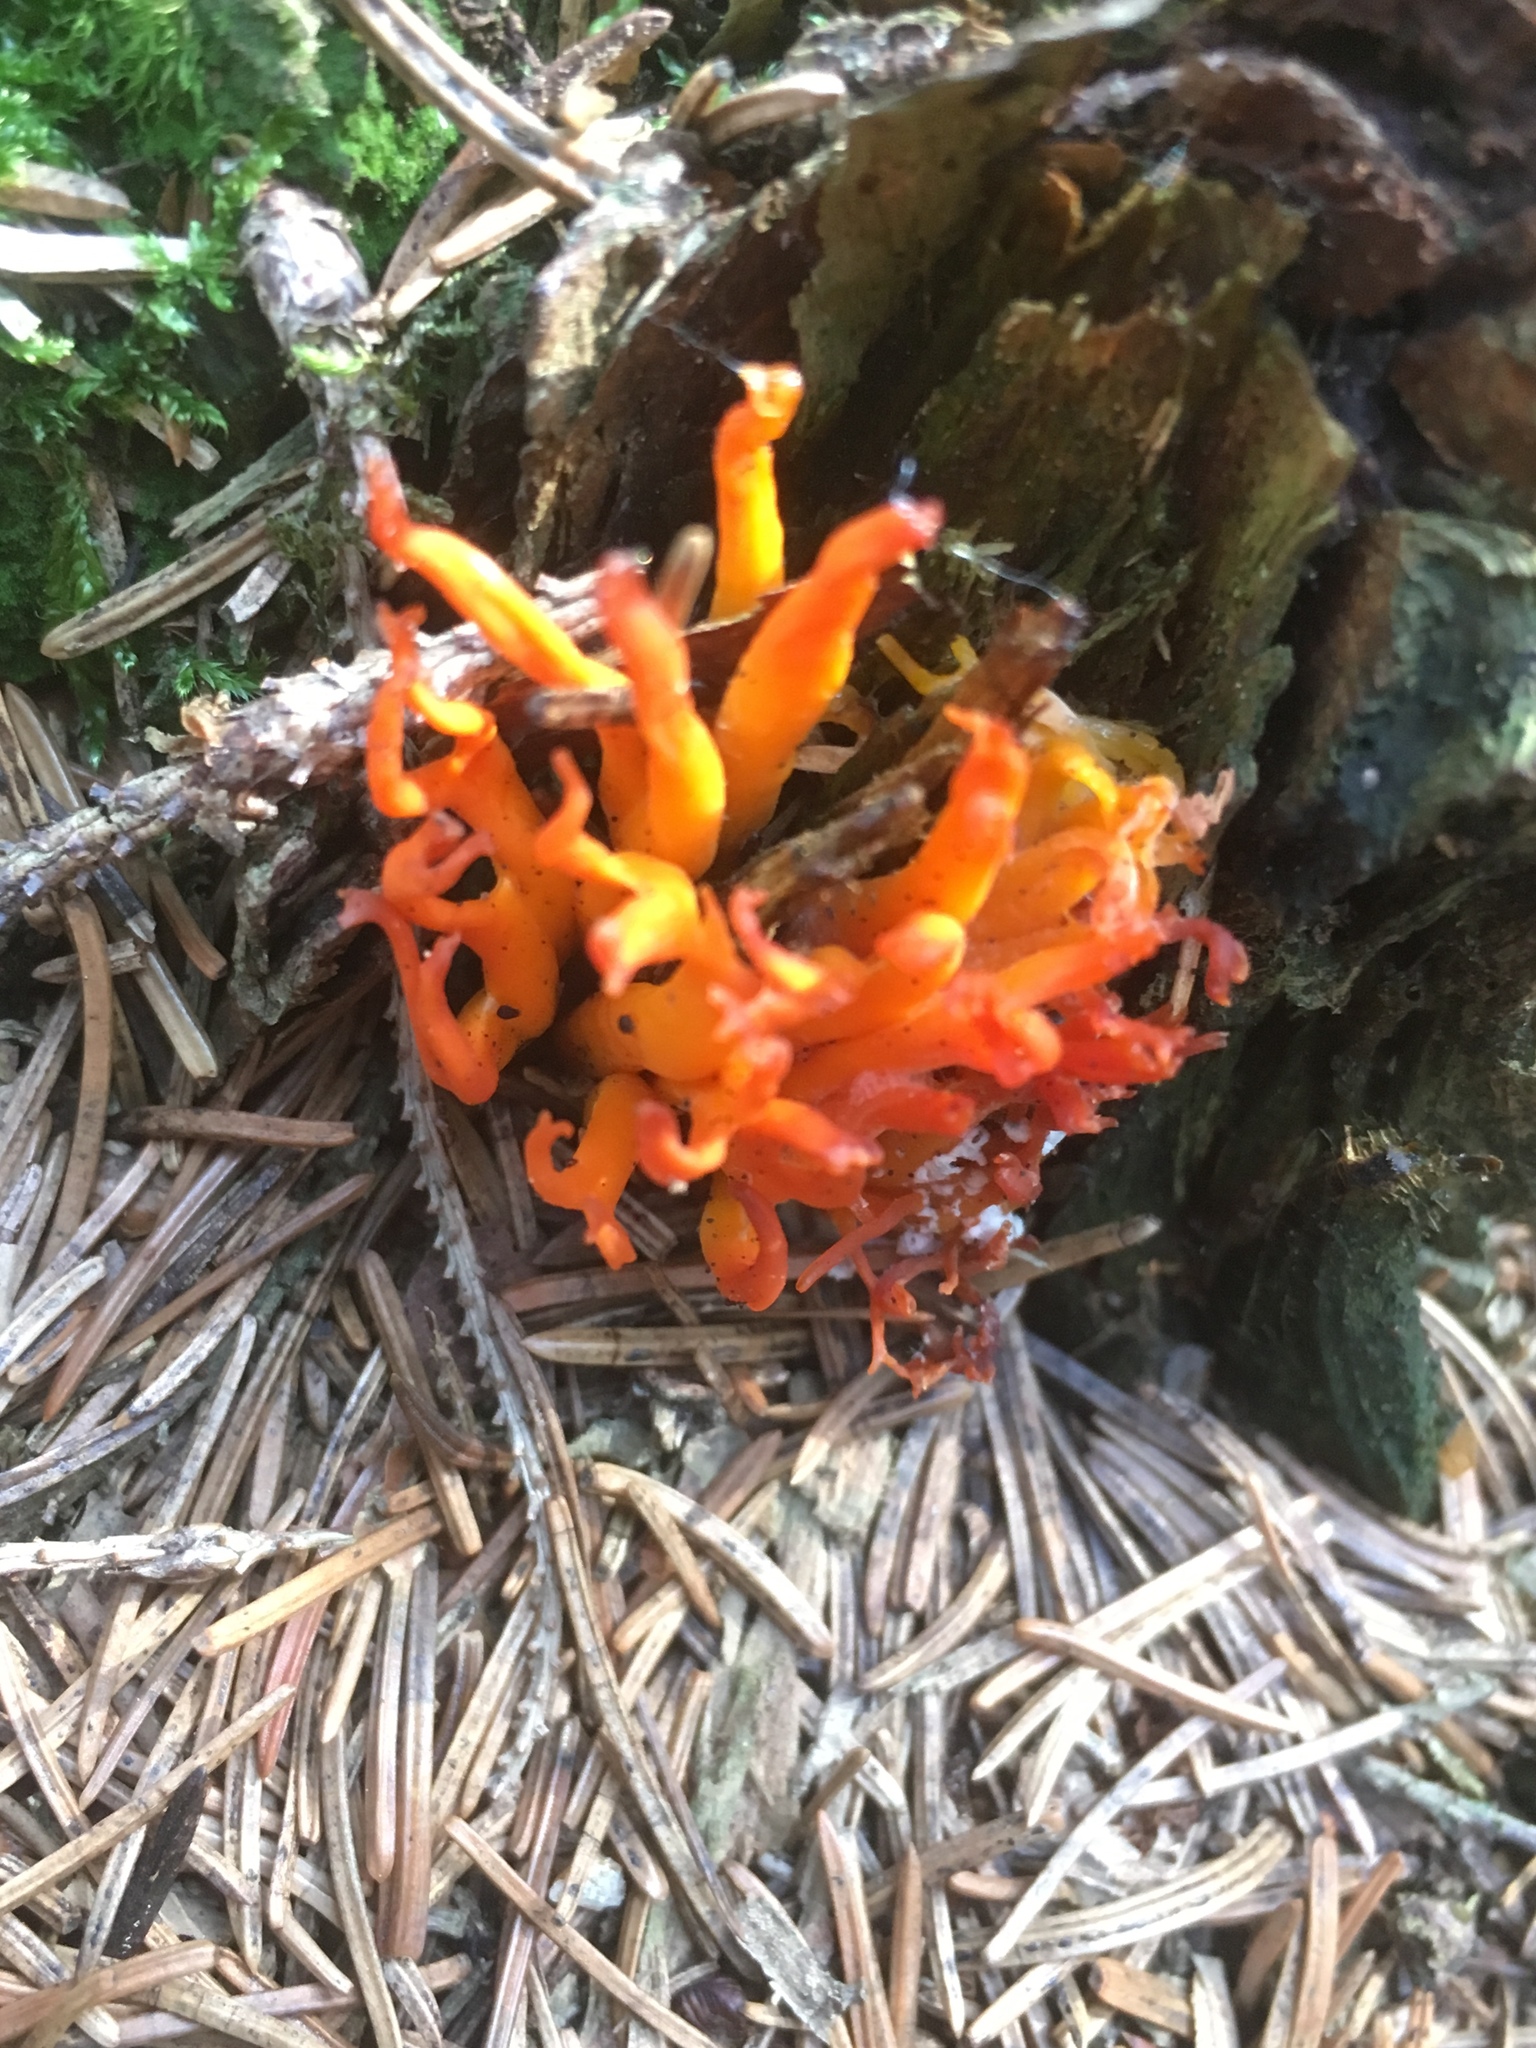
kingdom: Fungi
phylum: Basidiomycota
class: Dacrymycetes
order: Dacrymycetales
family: Dacrymycetaceae
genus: Calocera
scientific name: Calocera viscosa
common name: Yellow stagshorn
